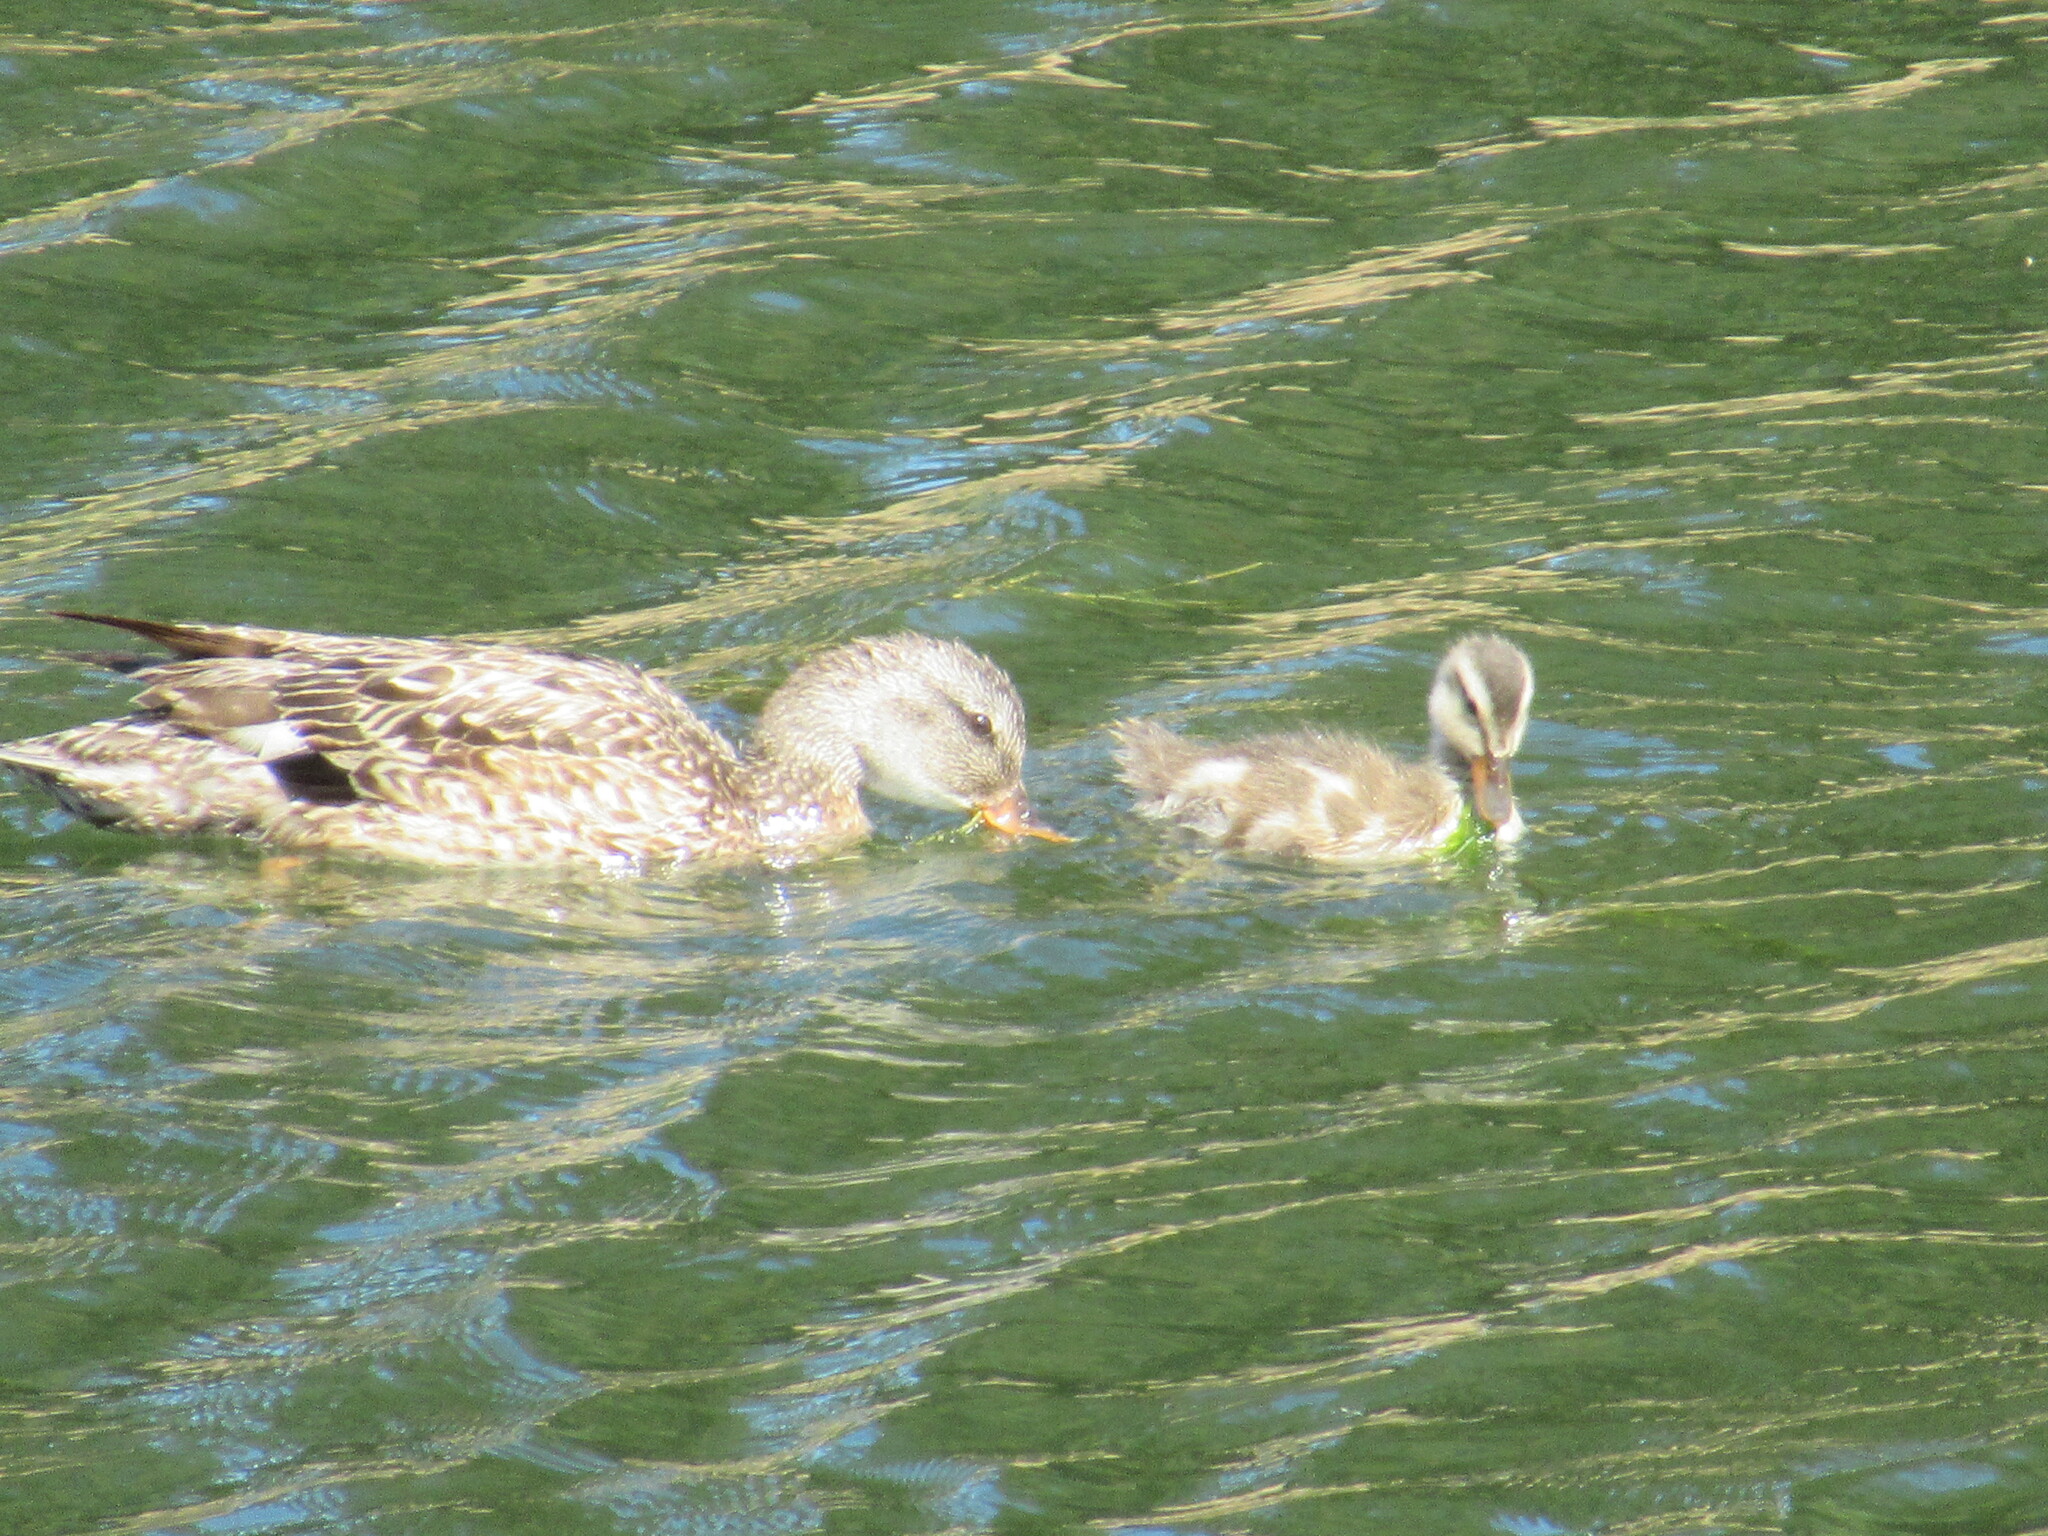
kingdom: Animalia
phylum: Chordata
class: Aves
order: Anseriformes
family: Anatidae
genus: Mareca
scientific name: Mareca strepera
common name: Gadwall
